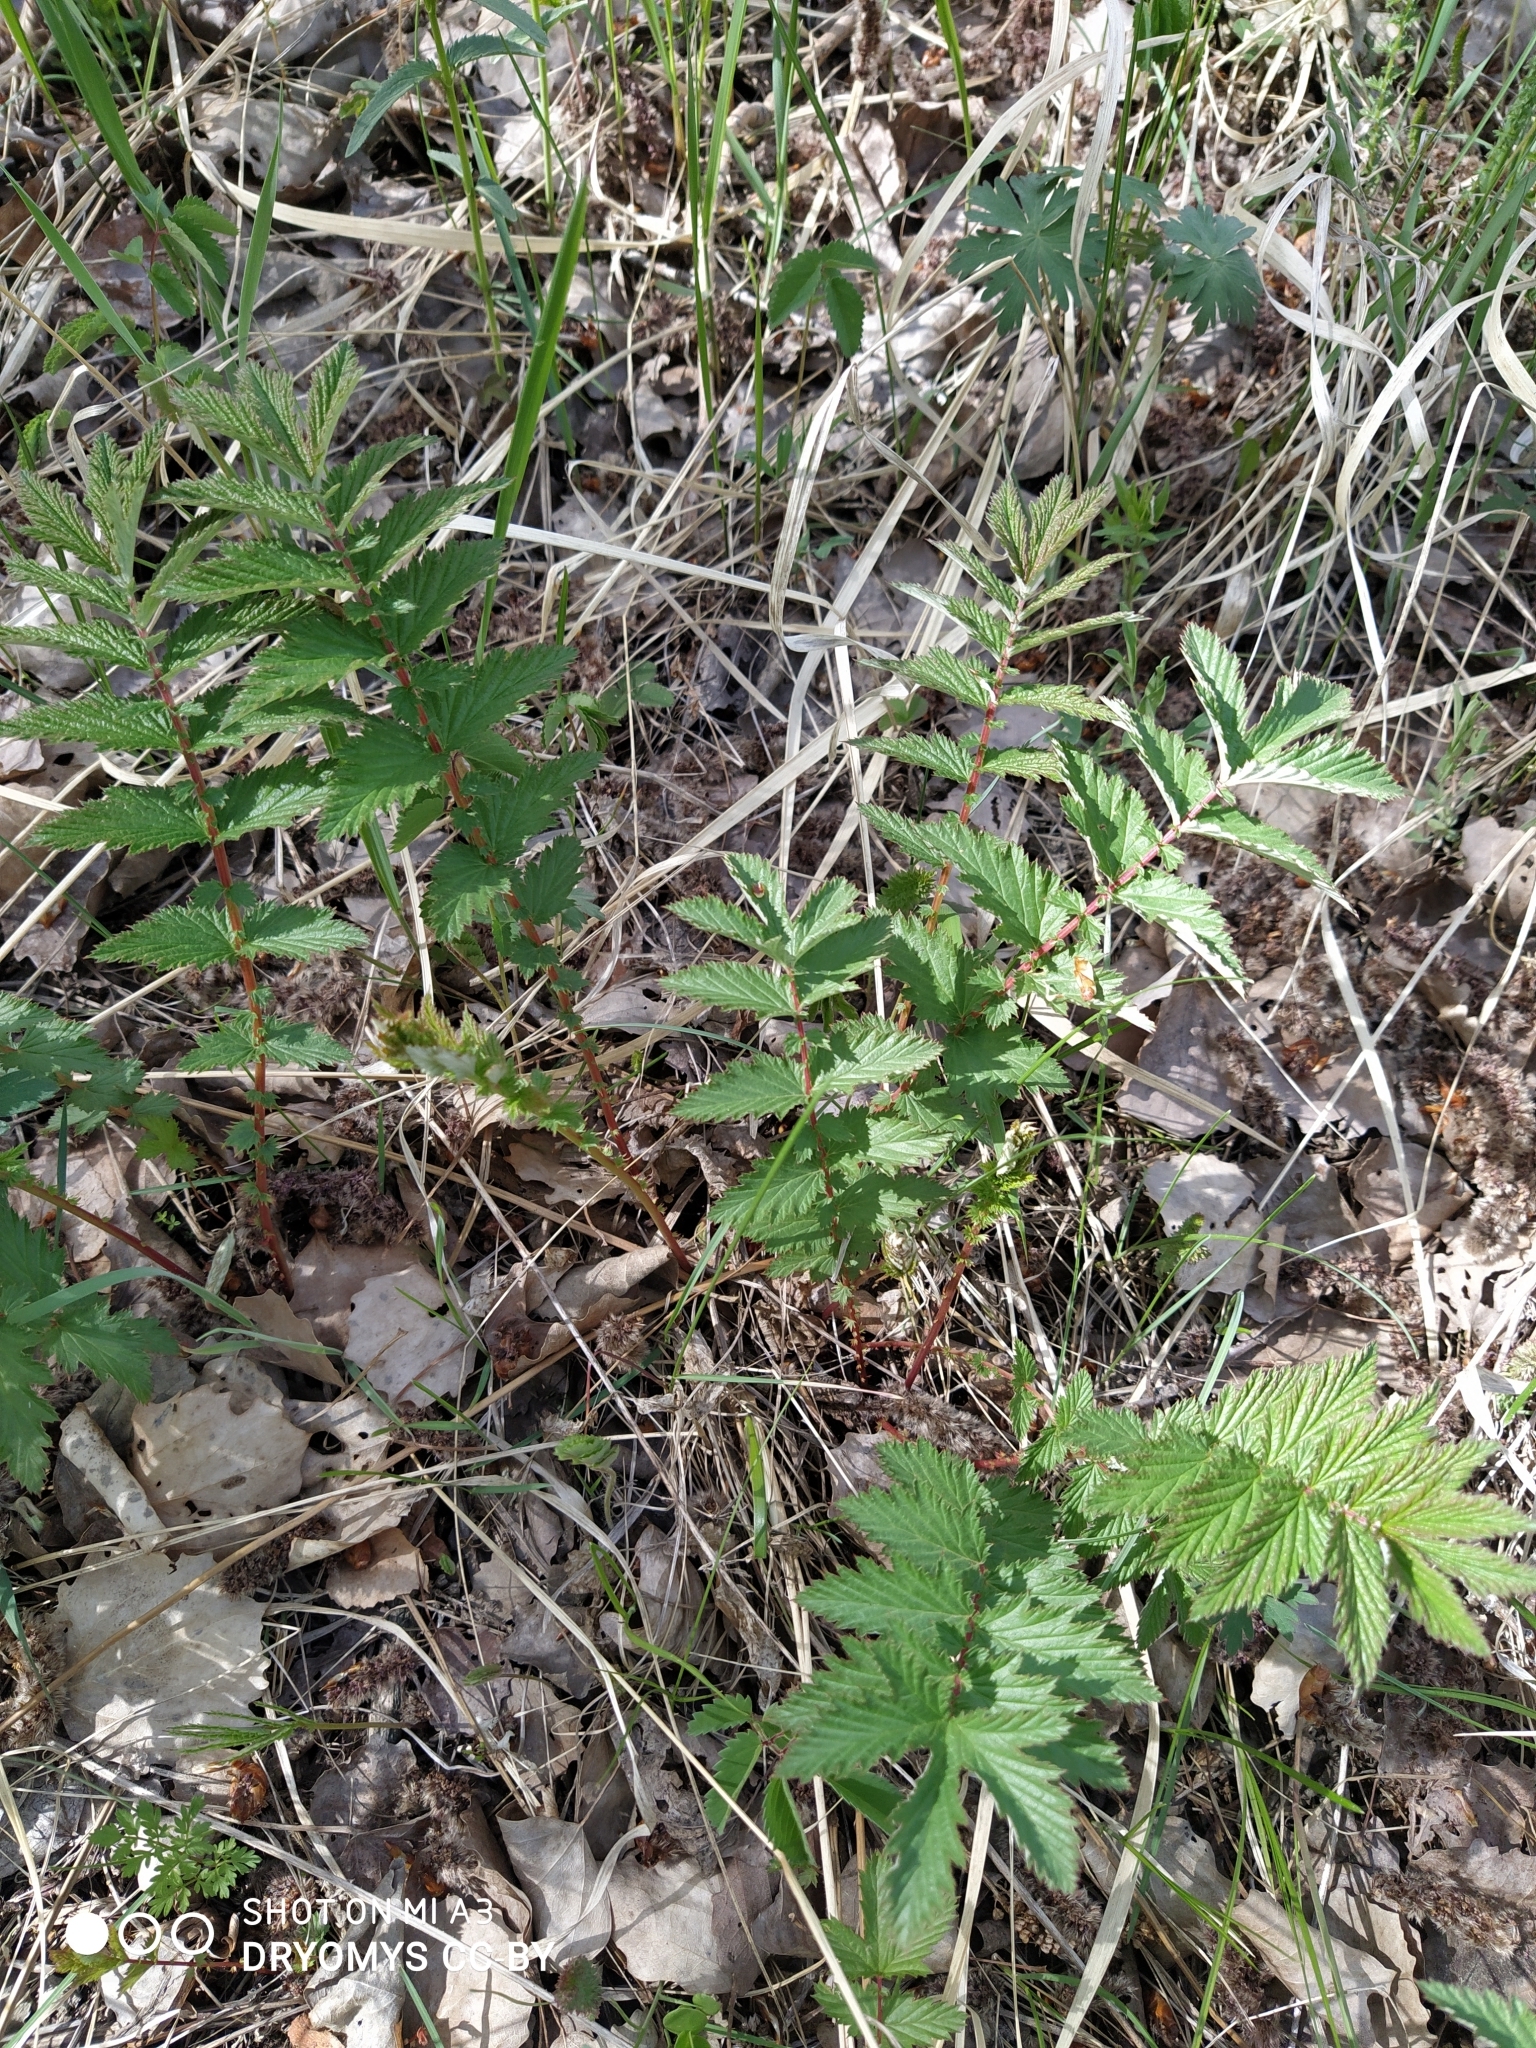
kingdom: Plantae
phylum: Tracheophyta
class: Magnoliopsida
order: Rosales
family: Rosaceae
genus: Filipendula
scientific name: Filipendula ulmaria
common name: Meadowsweet
